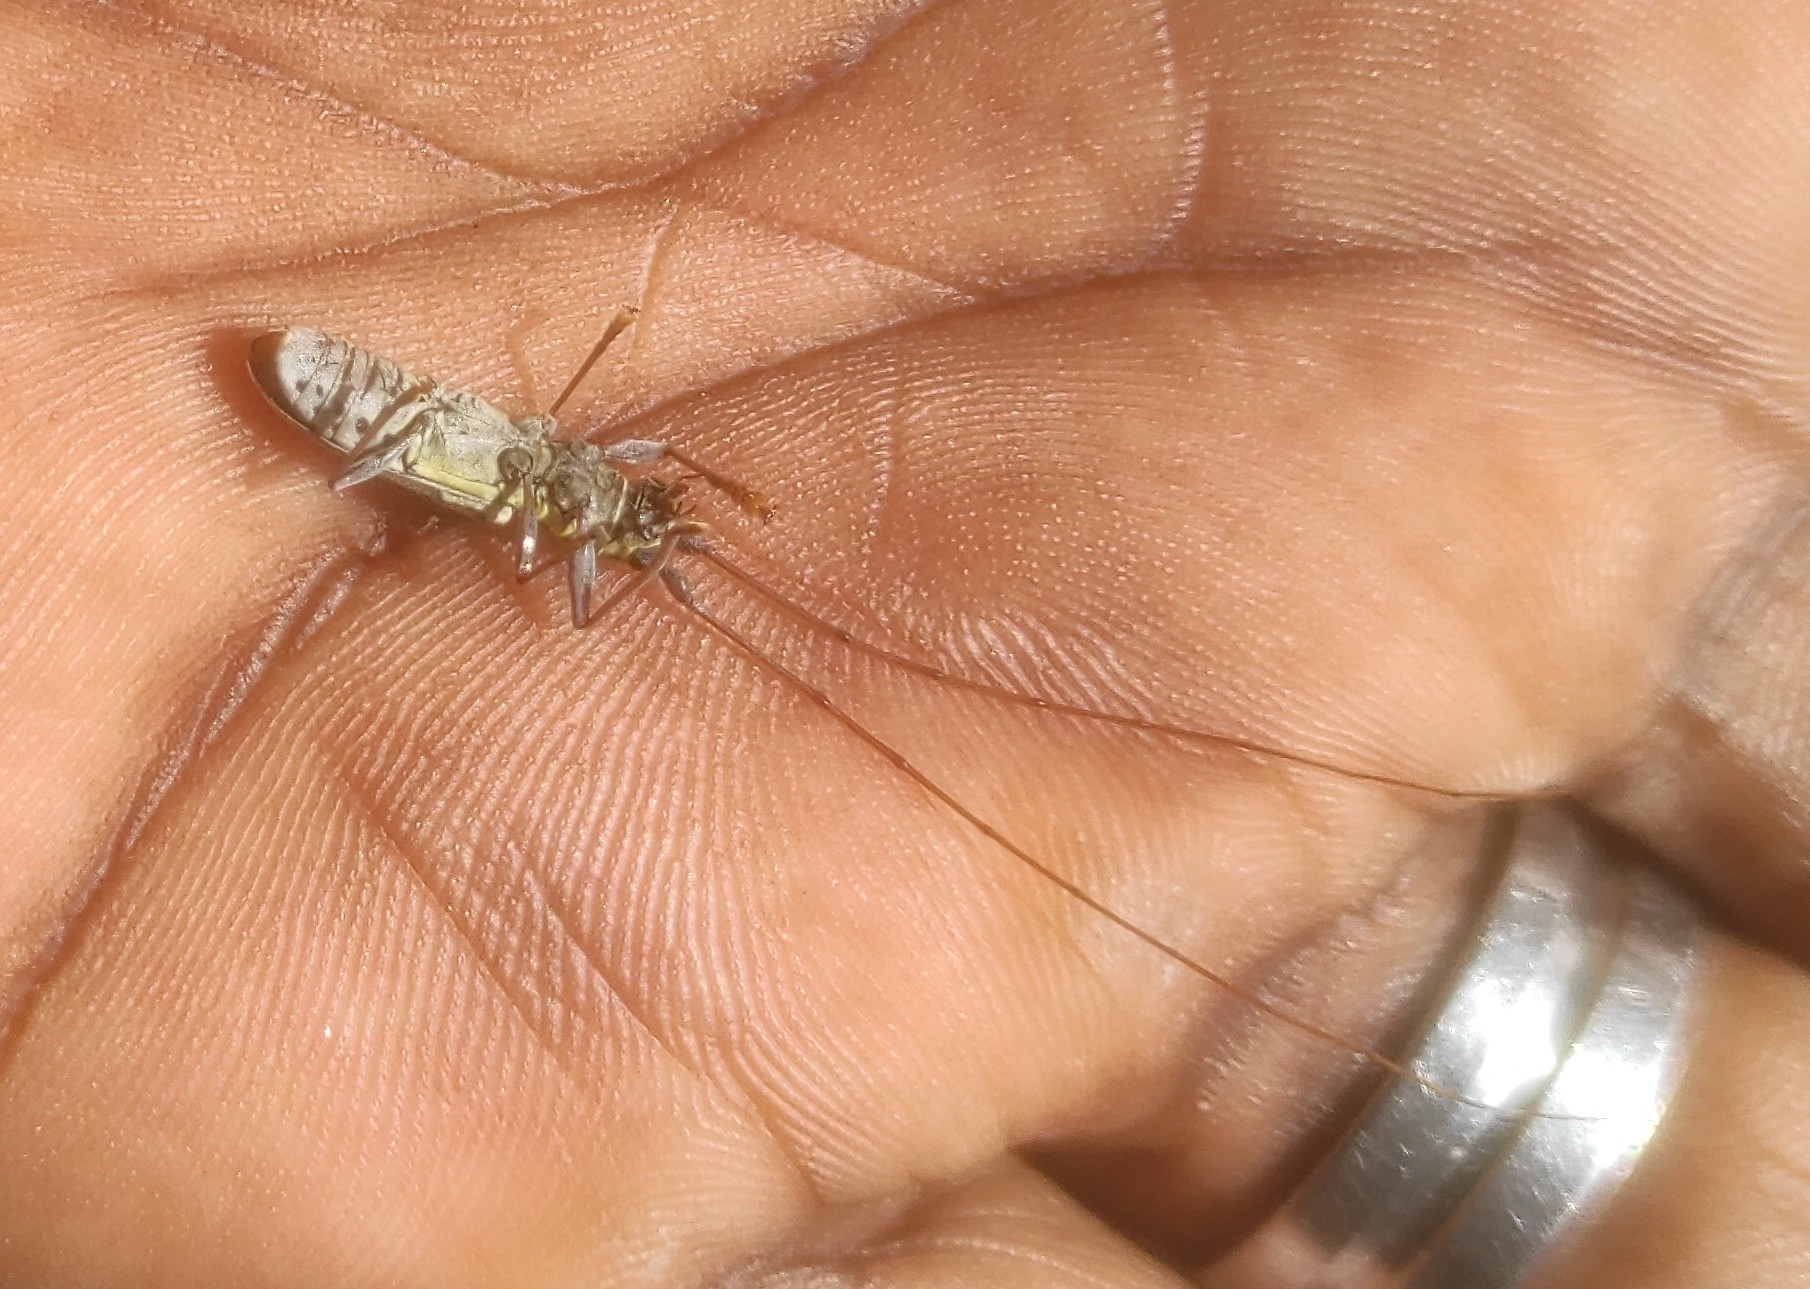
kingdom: Animalia
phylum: Arthropoda
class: Insecta
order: Coleoptera
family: Cerambycidae
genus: Olenecamptus
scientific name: Olenecamptus bilobus
